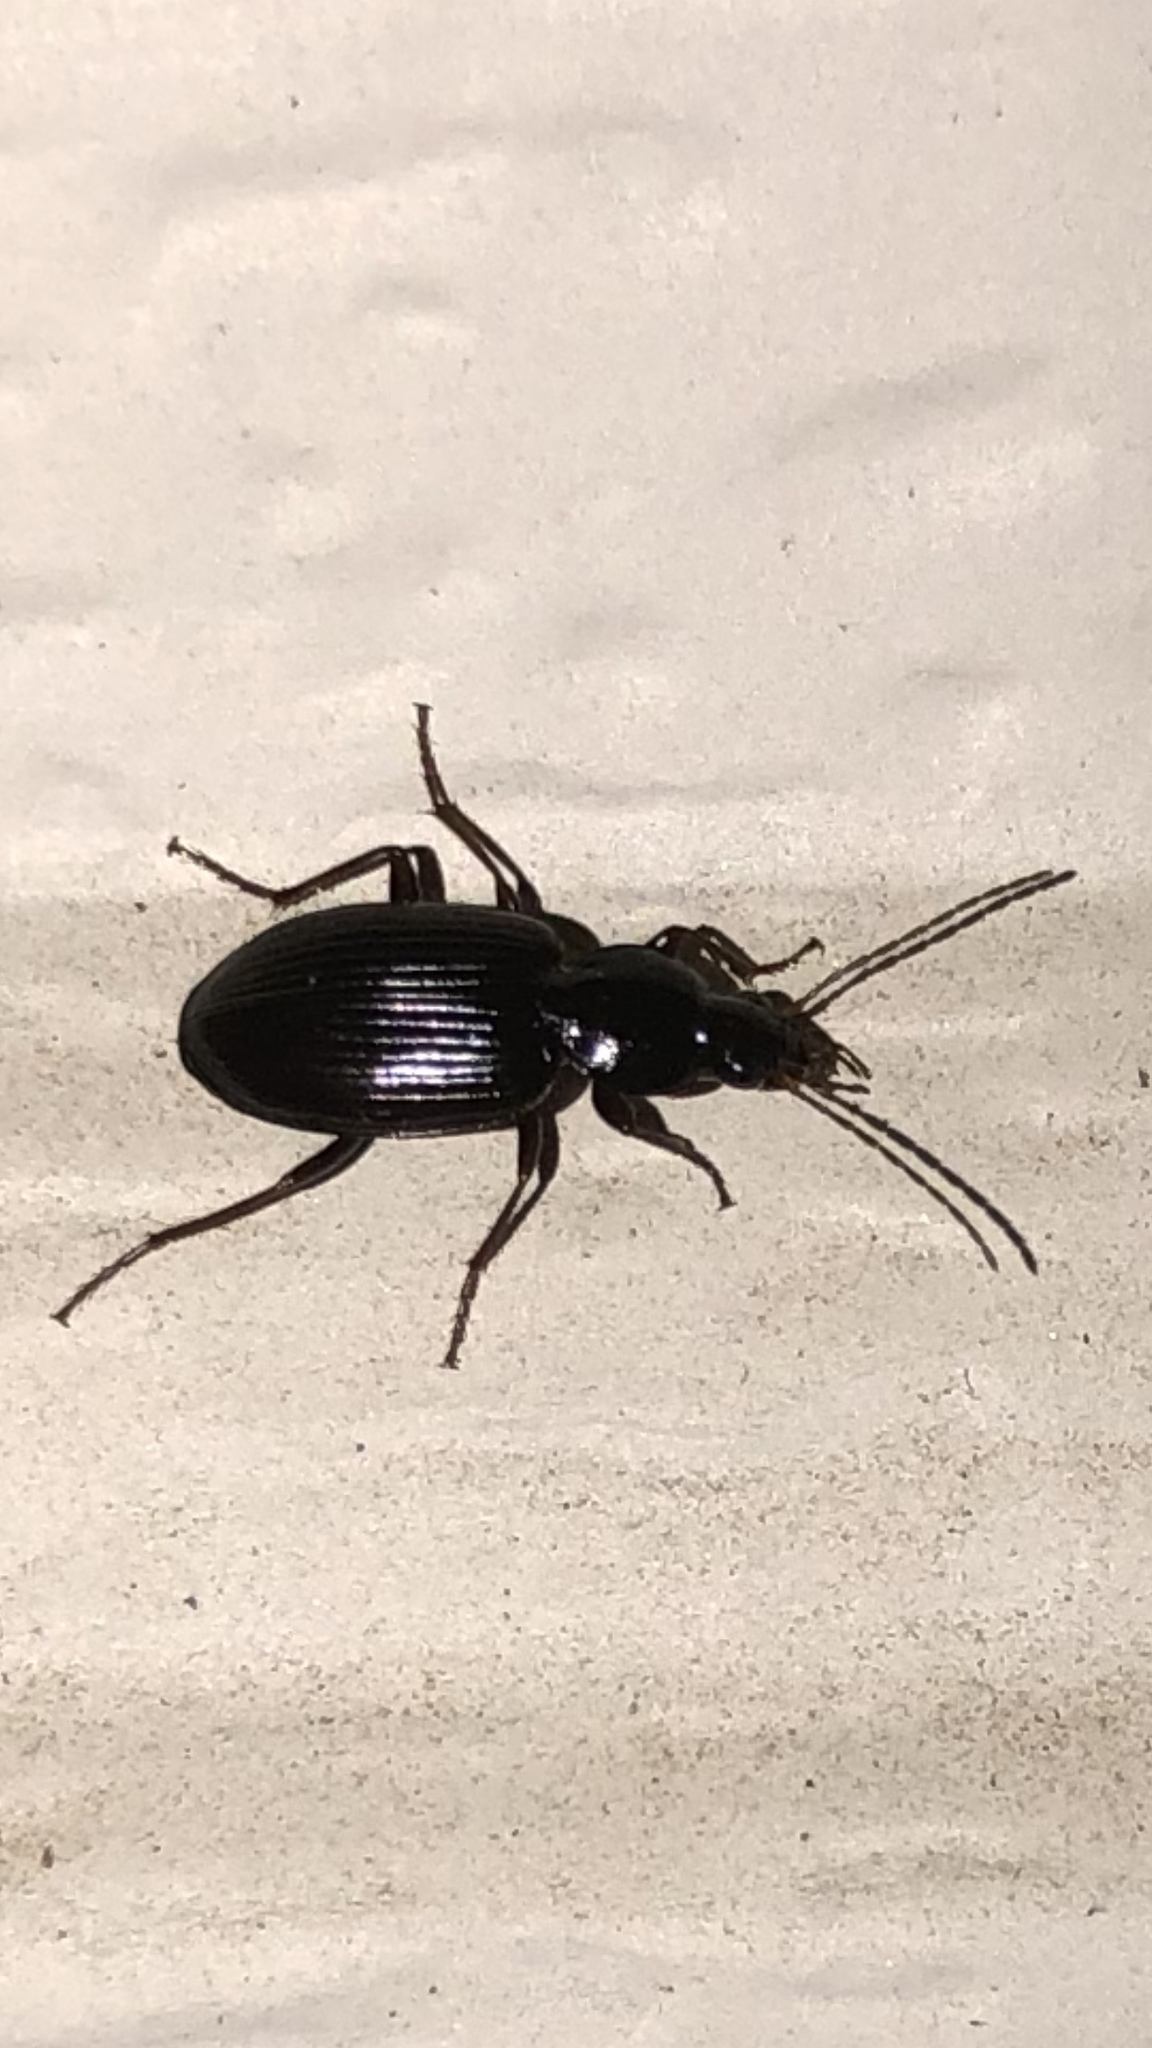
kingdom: Animalia
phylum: Arthropoda
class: Insecta
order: Coleoptera
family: Carabidae
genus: Agonum
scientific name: Agonum punctiforme
